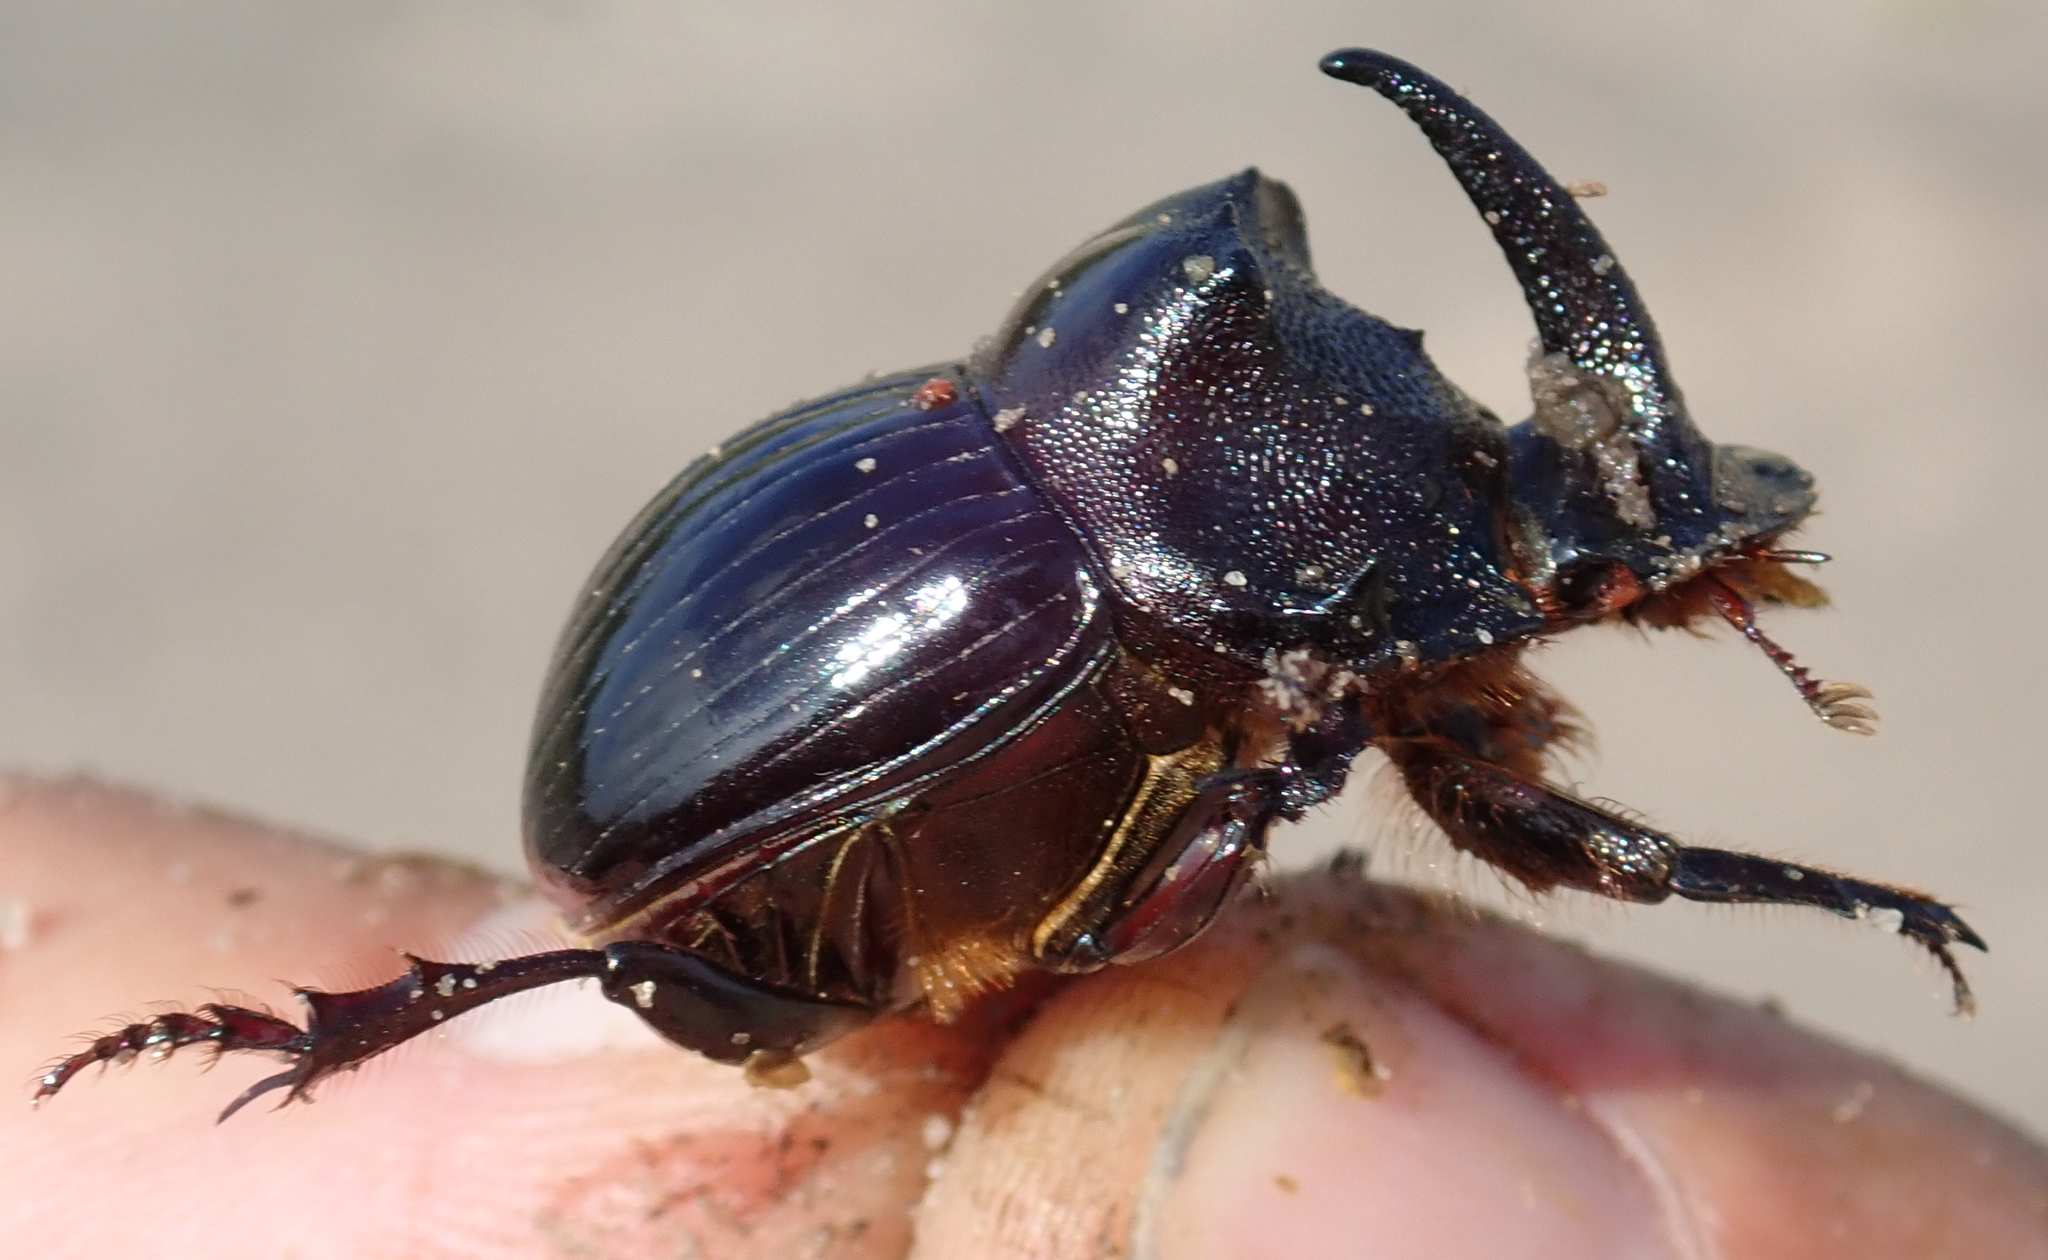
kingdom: Animalia
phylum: Arthropoda
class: Insecta
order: Coleoptera
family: Scarabaeidae
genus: Copris
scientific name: Copris elphenor
